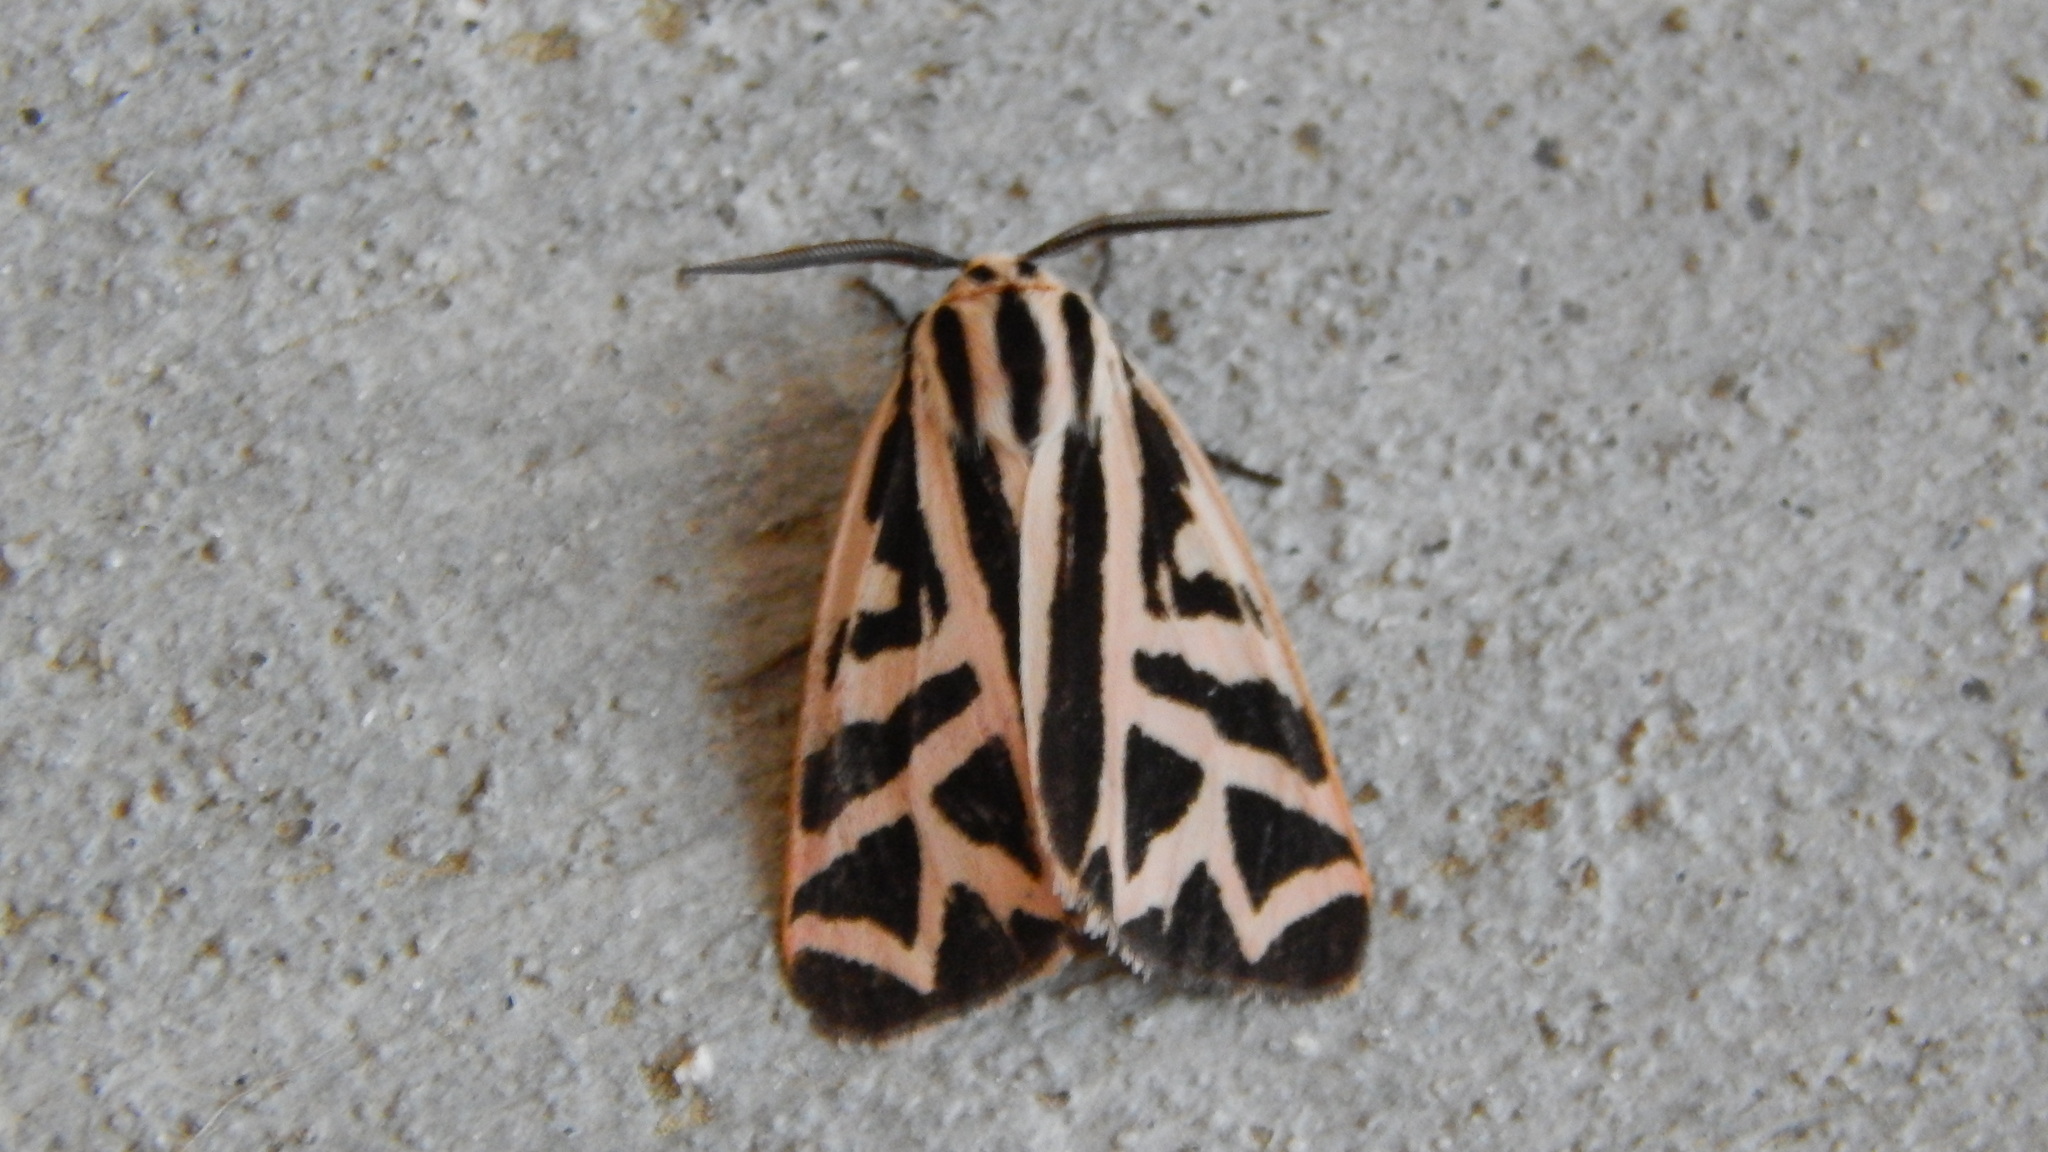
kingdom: Animalia
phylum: Arthropoda
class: Insecta
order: Lepidoptera
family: Erebidae
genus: Apantesis
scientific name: Apantesis
